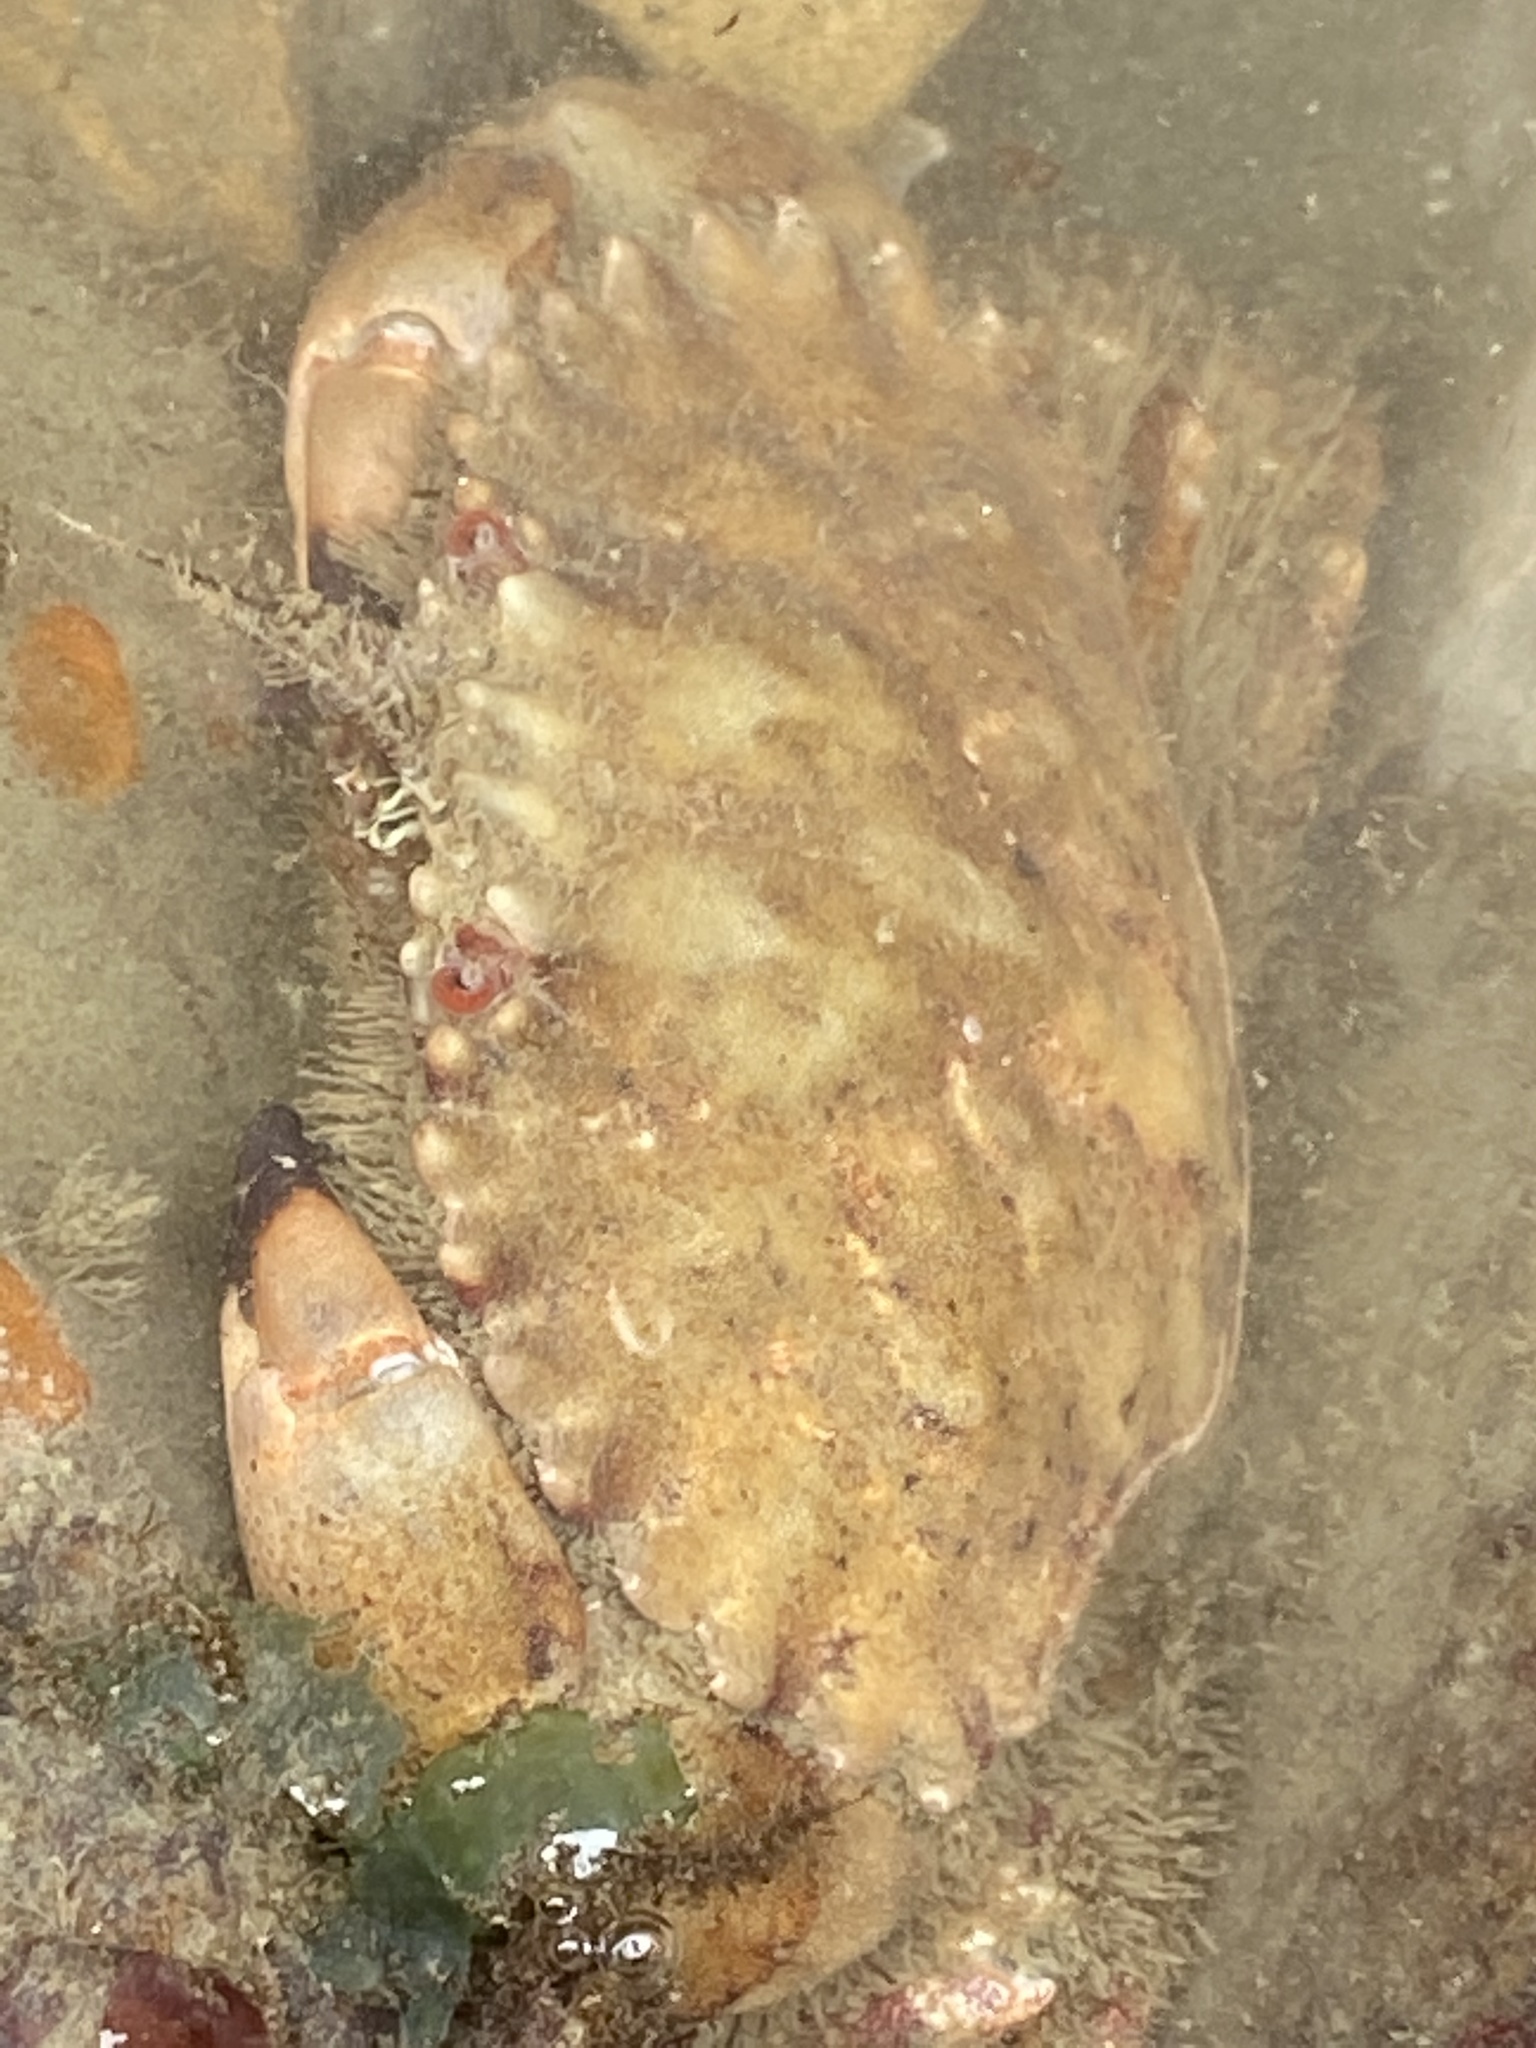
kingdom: Animalia
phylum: Arthropoda
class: Malacostraca
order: Decapoda
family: Cancridae
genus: Romaleon
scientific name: Romaleon antennarium
